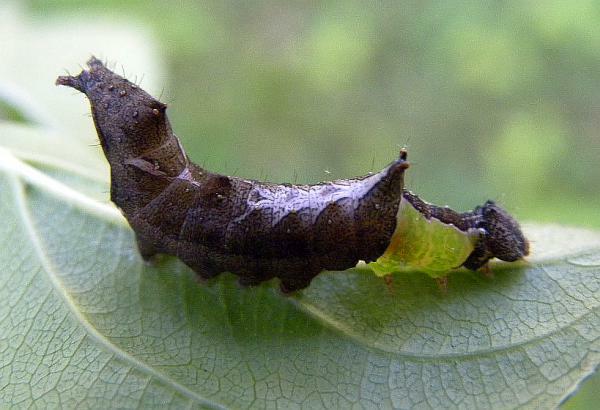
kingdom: Animalia
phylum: Arthropoda
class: Insecta
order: Lepidoptera
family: Notodontidae
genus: Schizura
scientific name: Schizura
